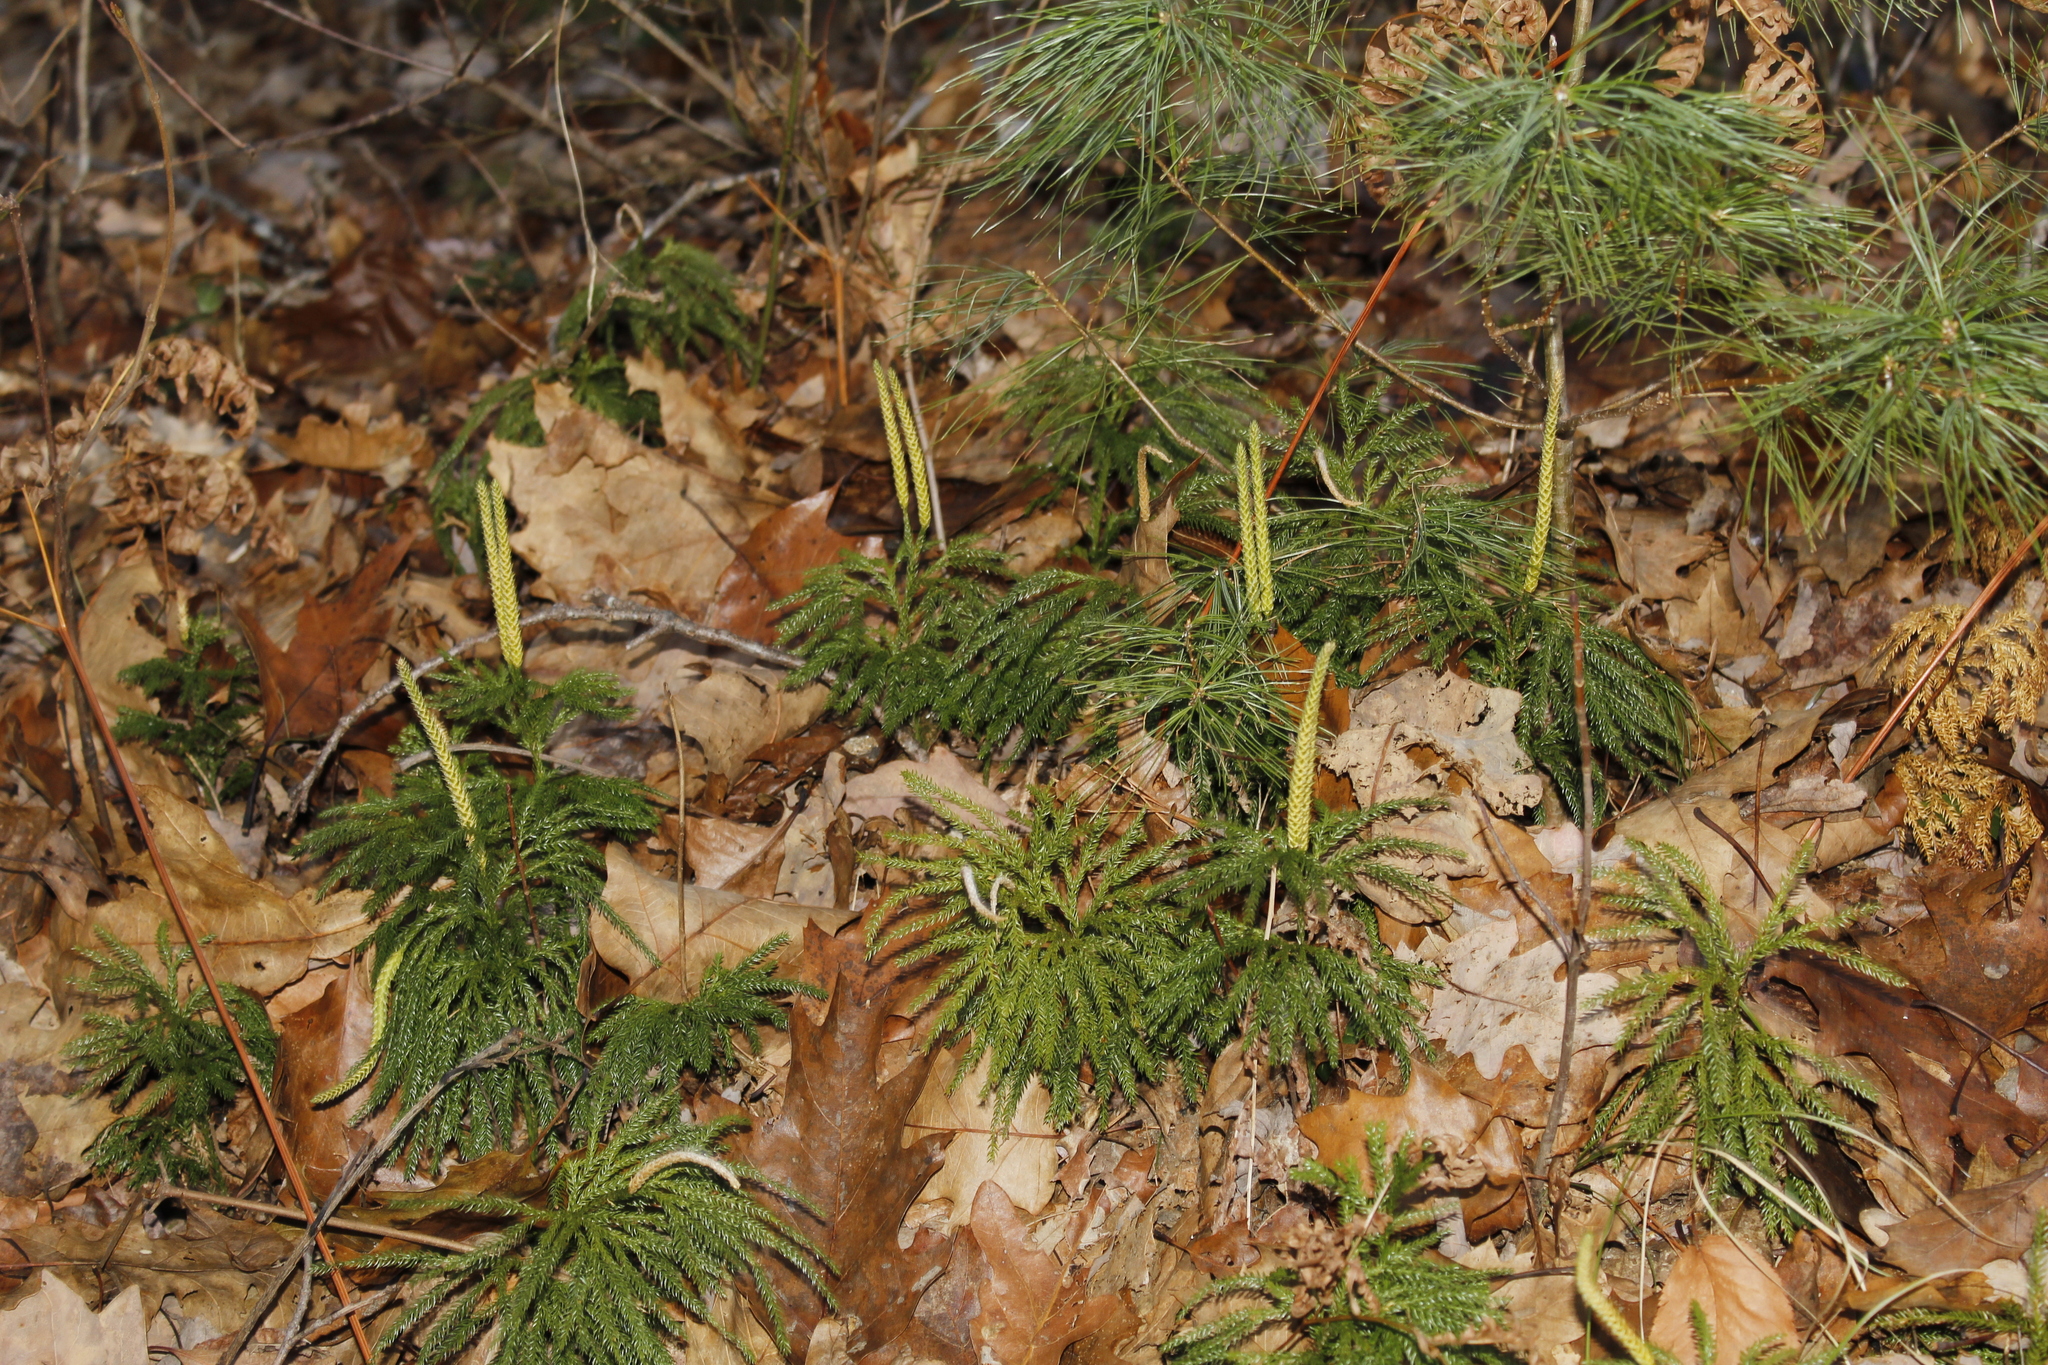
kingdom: Plantae
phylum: Tracheophyta
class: Lycopodiopsida
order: Lycopodiales
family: Lycopodiaceae
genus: Dendrolycopodium
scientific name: Dendrolycopodium obscurum
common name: Common ground-pine
